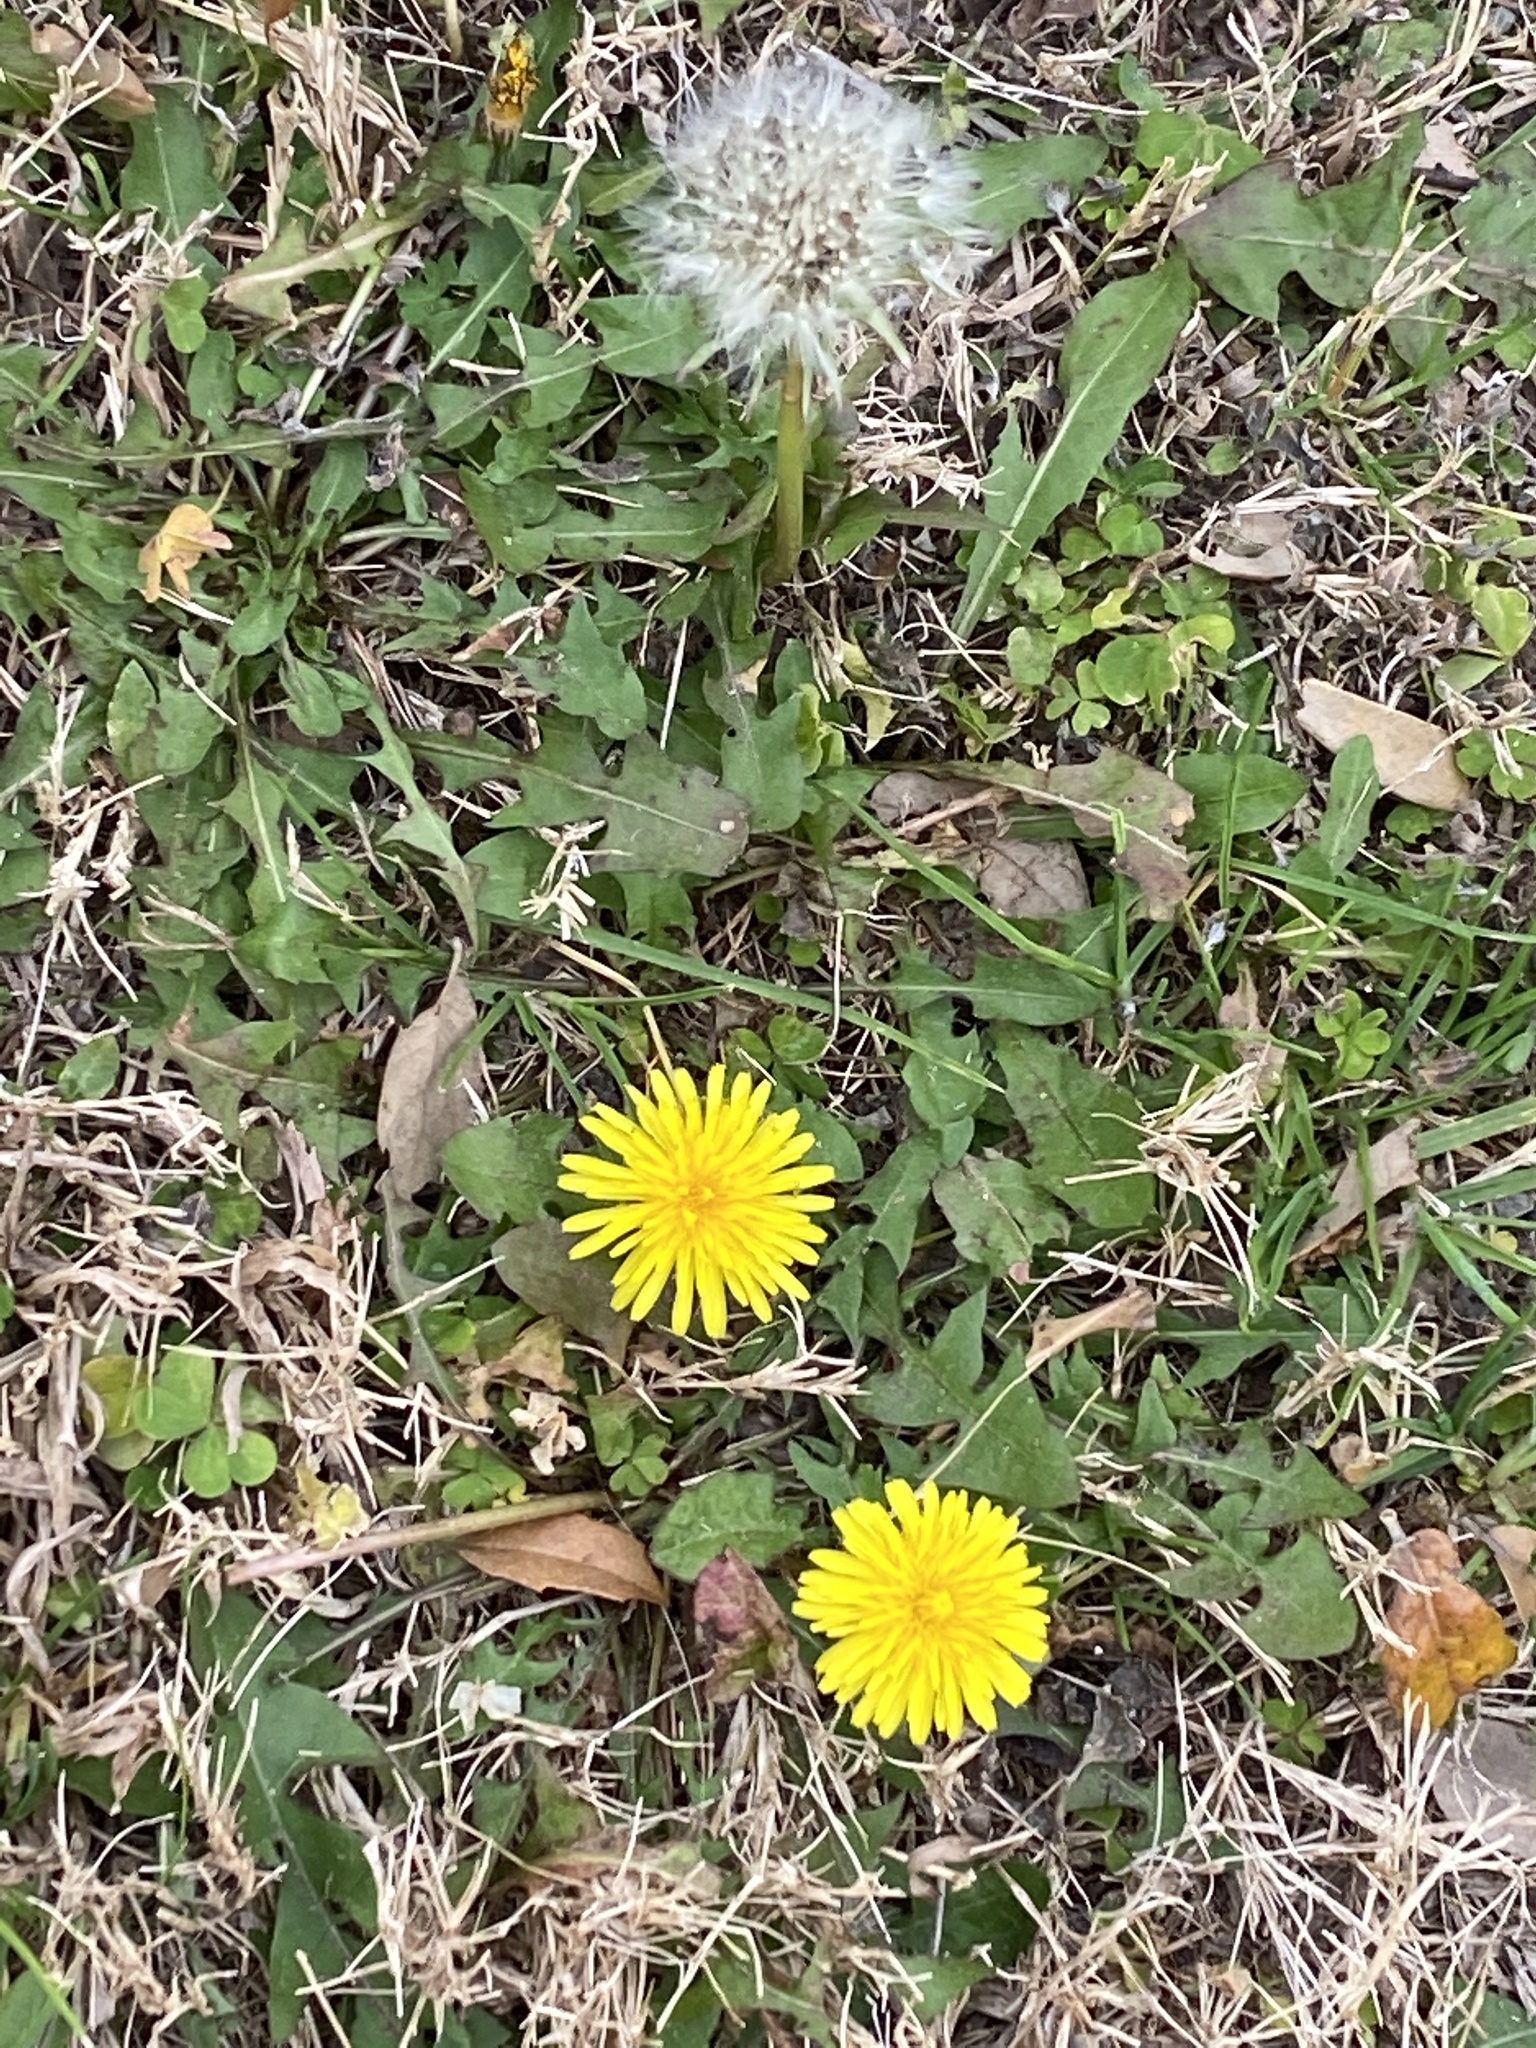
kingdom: Plantae
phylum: Tracheophyta
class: Magnoliopsida
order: Asterales
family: Asteraceae
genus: Taraxacum
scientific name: Taraxacum officinale
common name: Common dandelion
